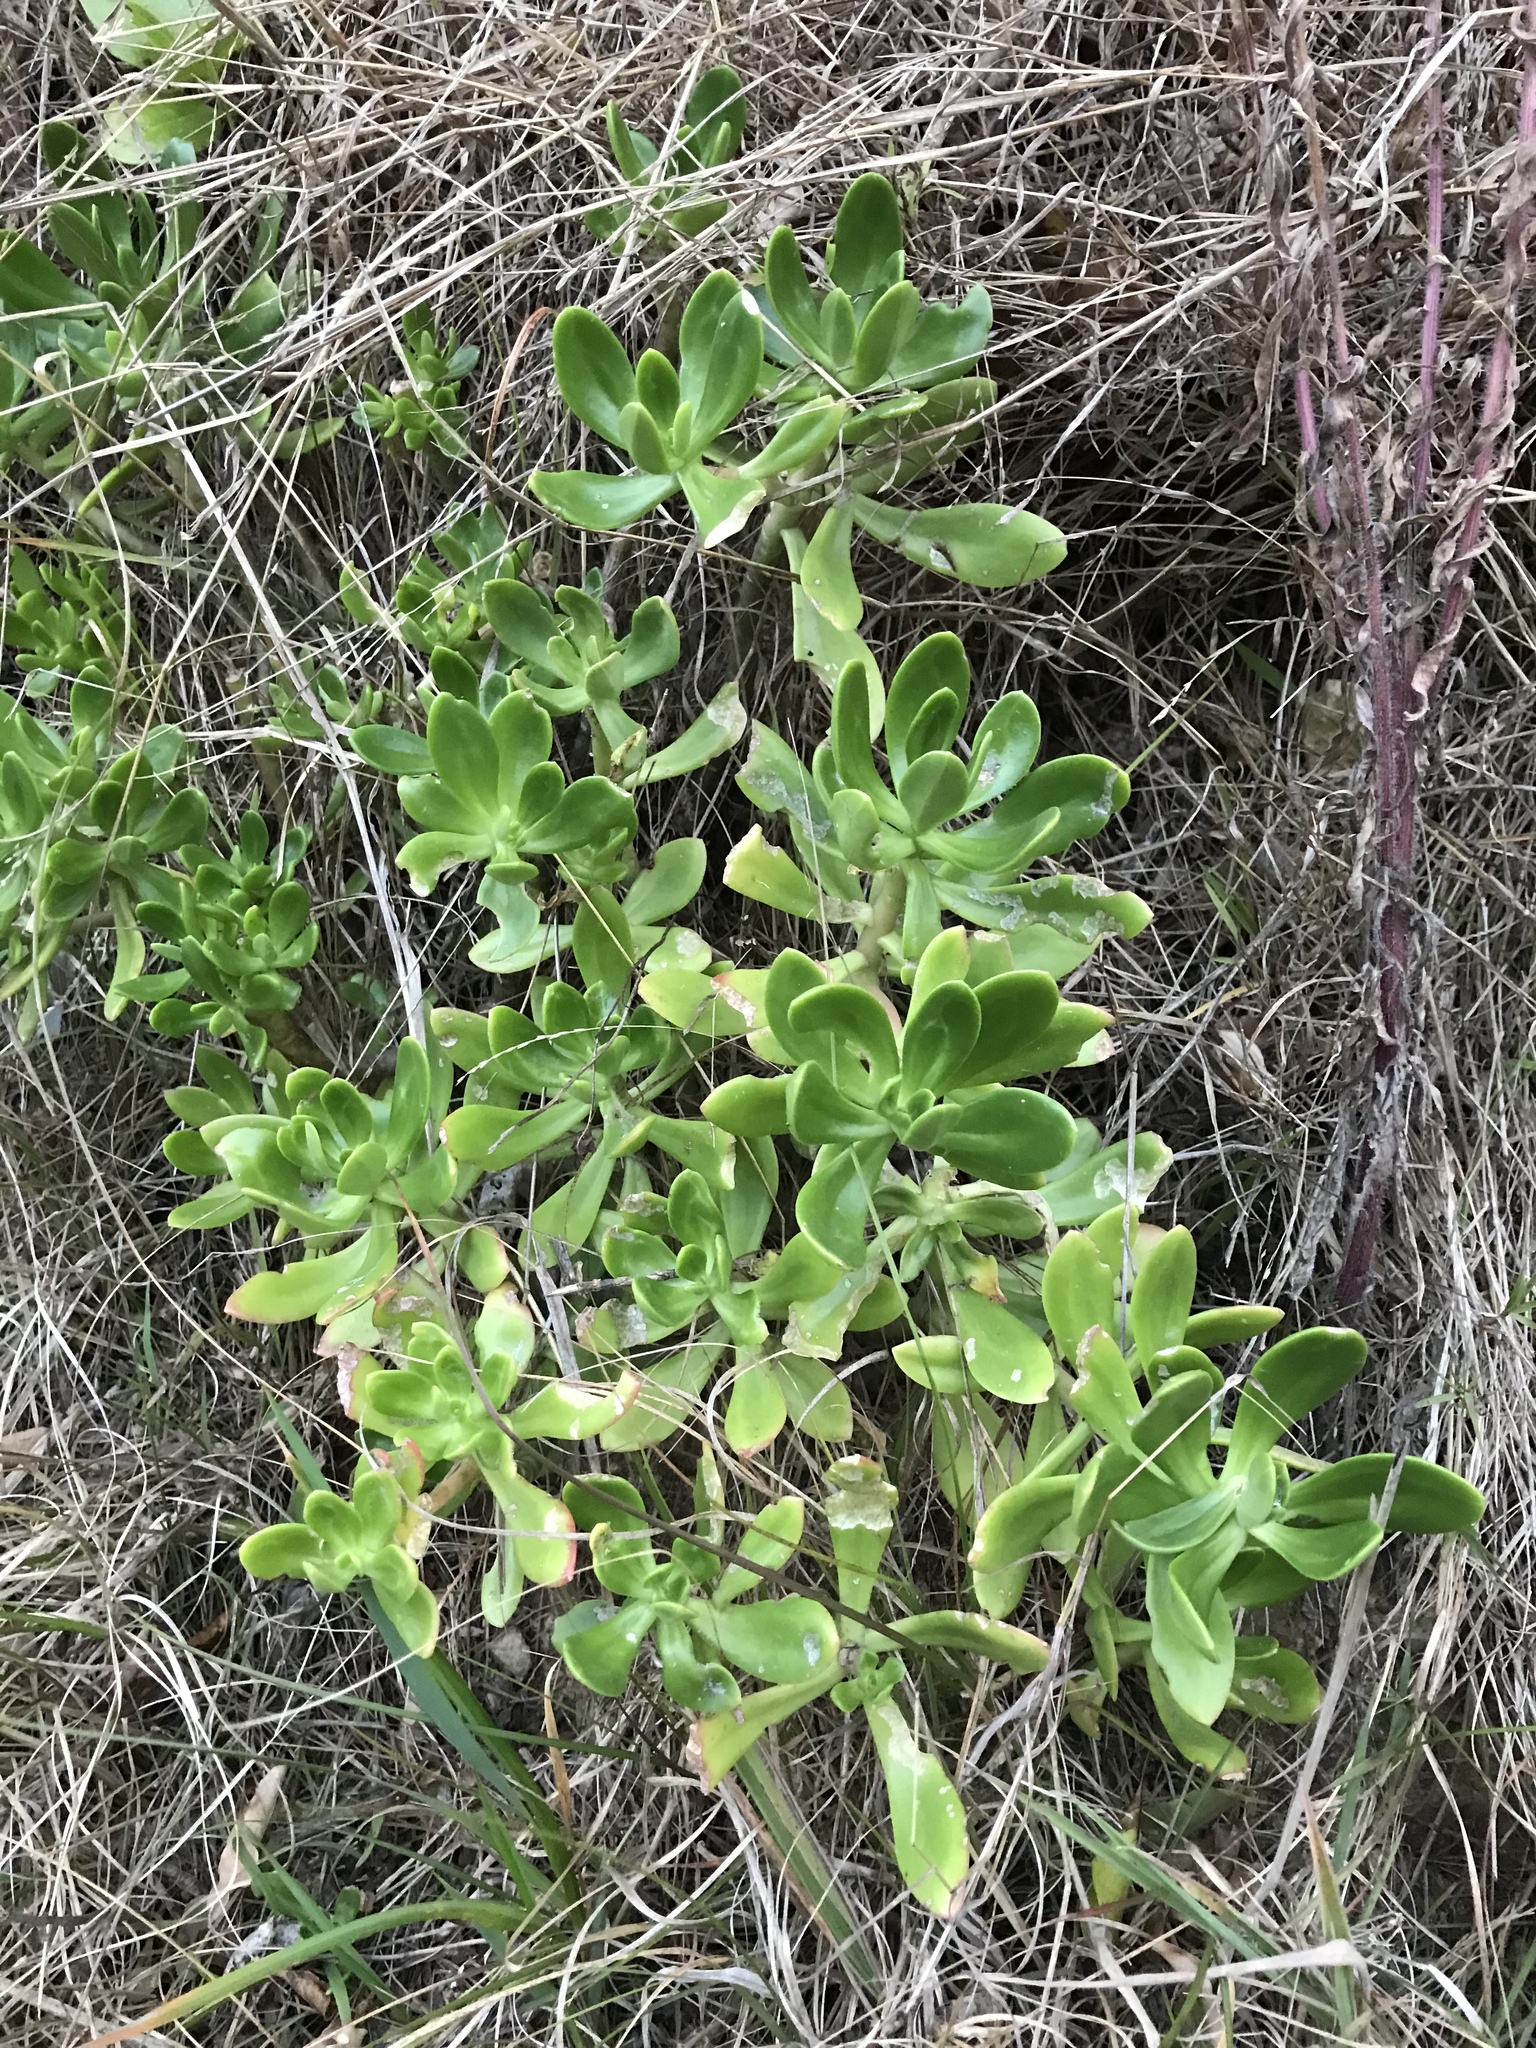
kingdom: Plantae
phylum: Tracheophyta
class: Magnoliopsida
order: Saxifragales
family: Crassulaceae
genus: Sedum
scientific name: Sedum praealtum
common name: Greater mexican-stonecrop
